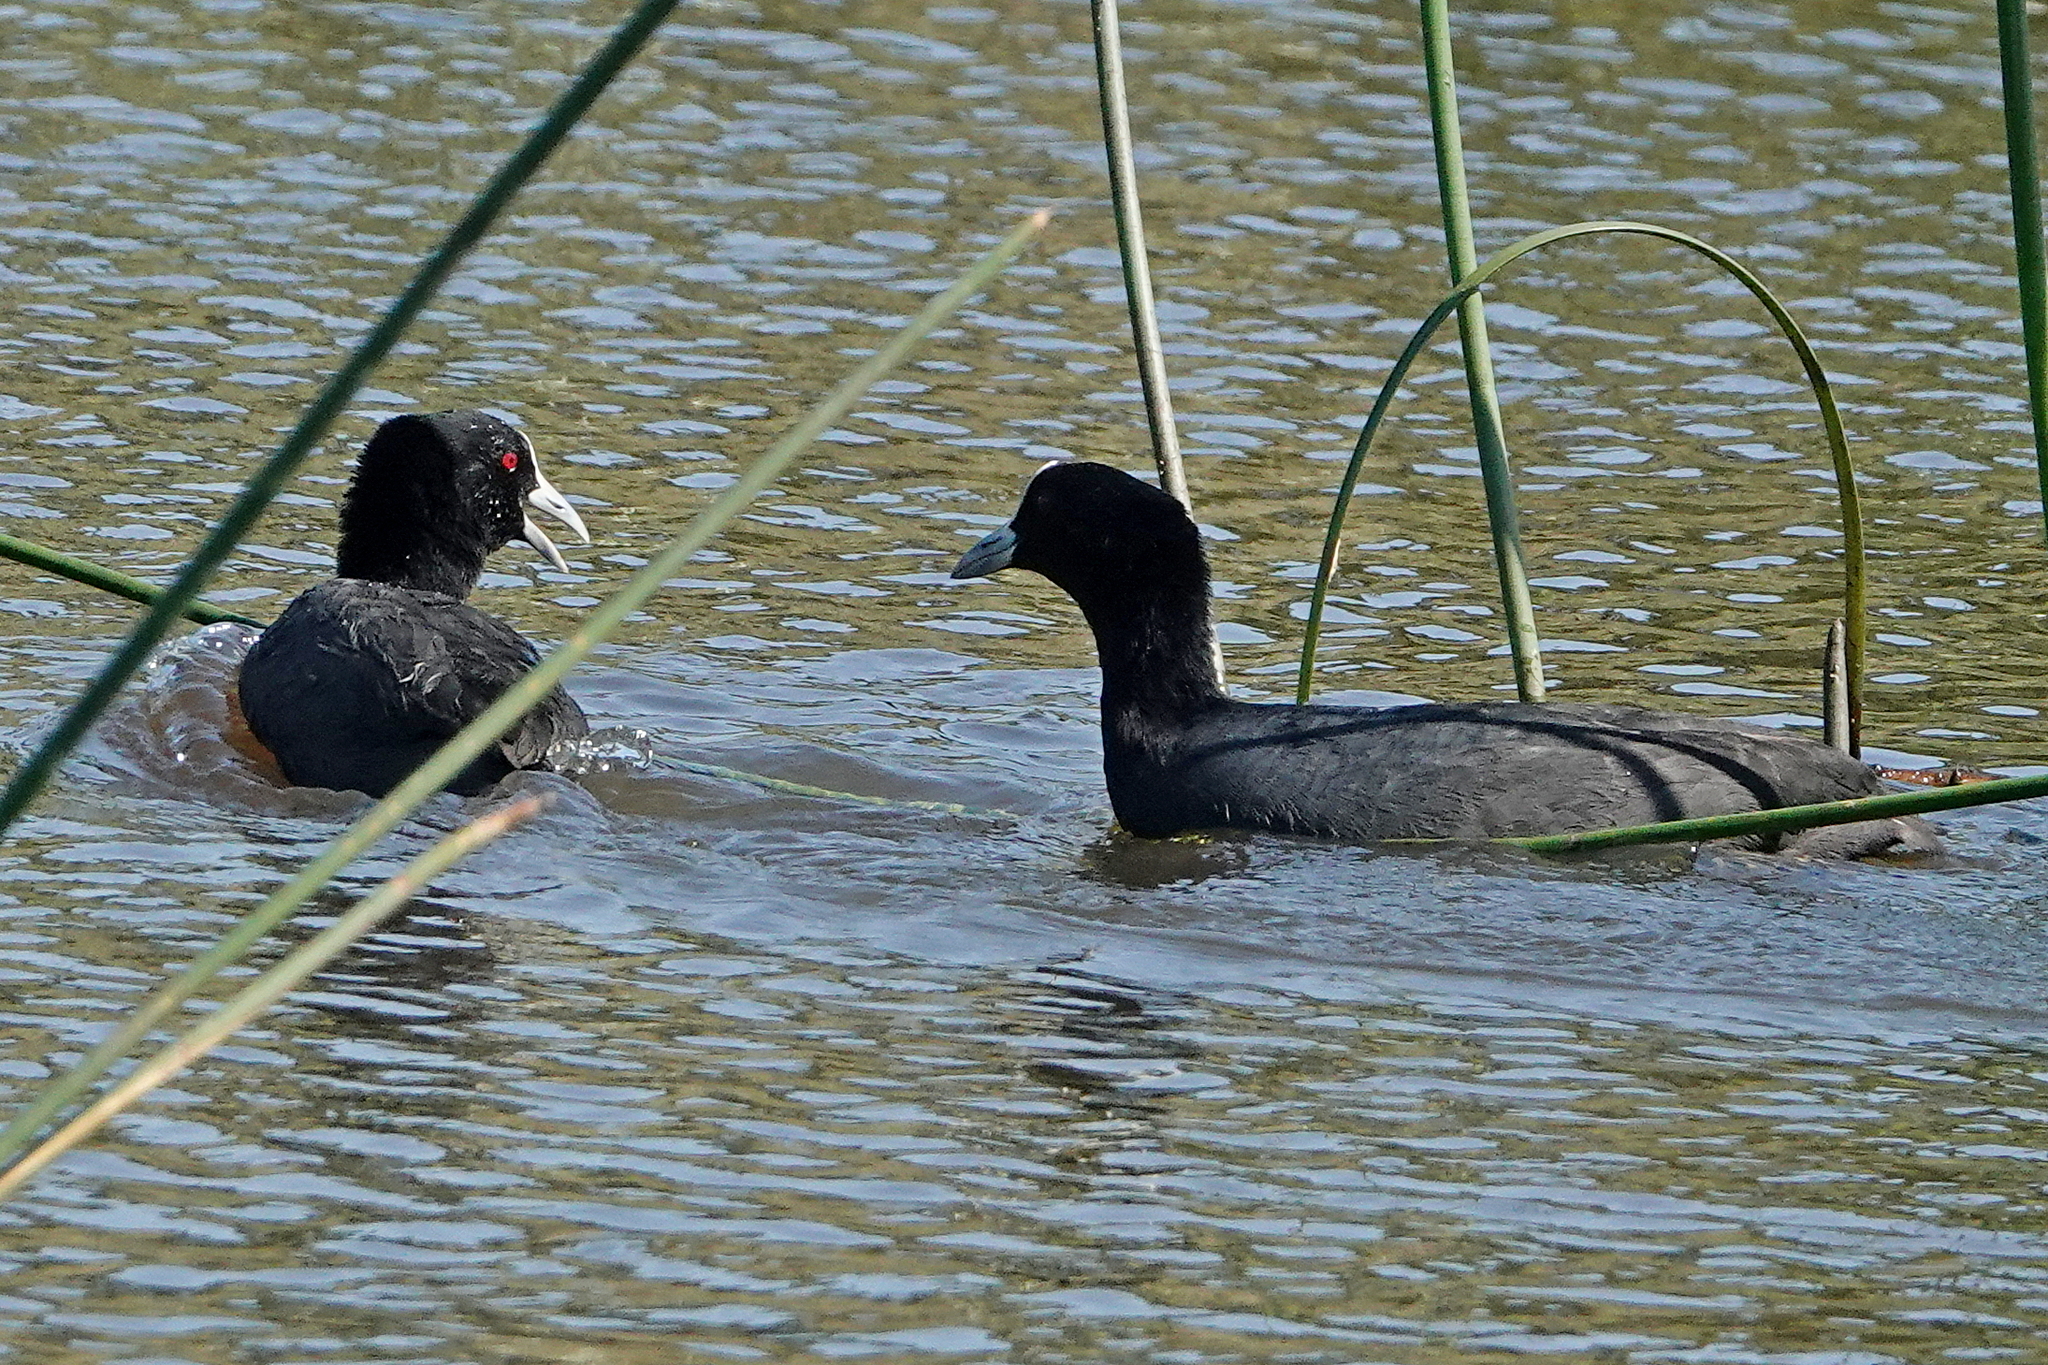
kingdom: Animalia
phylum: Chordata
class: Aves
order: Gruiformes
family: Rallidae
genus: Fulica
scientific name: Fulica atra
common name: Eurasian coot
